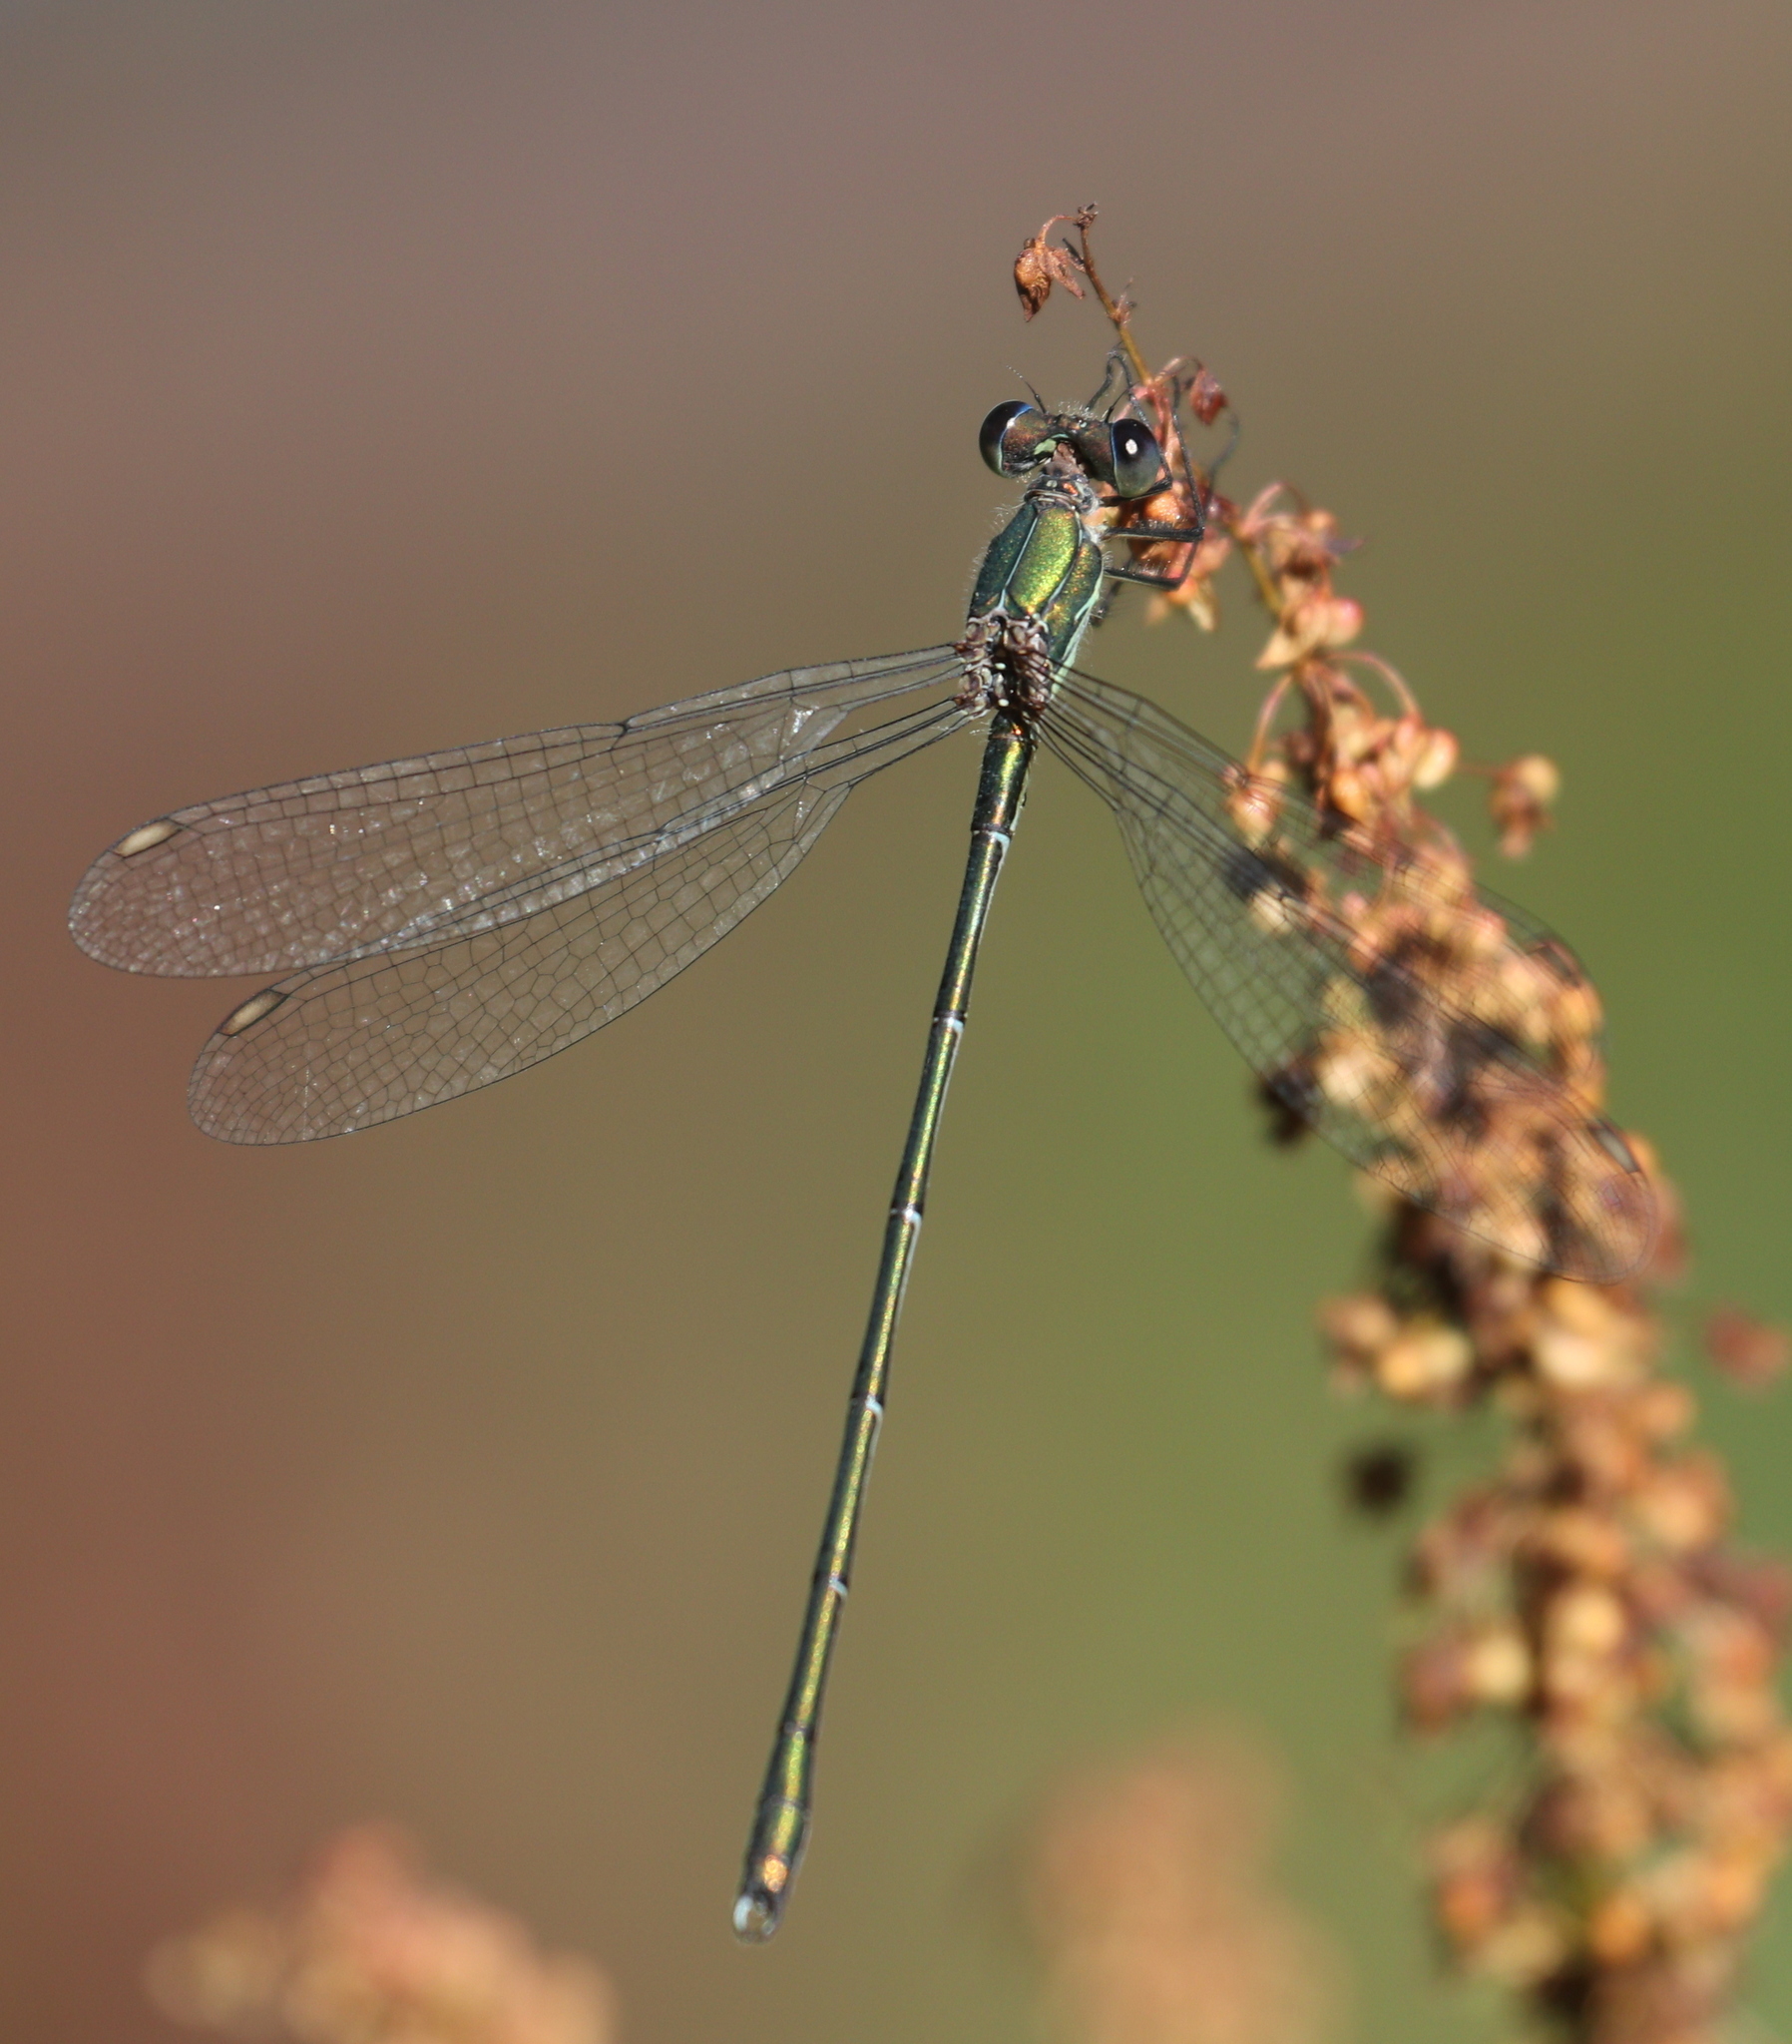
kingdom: Animalia
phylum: Arthropoda
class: Insecta
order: Odonata
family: Lestidae
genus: Chalcolestes
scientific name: Chalcolestes viridis
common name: Green emerald damselfly
